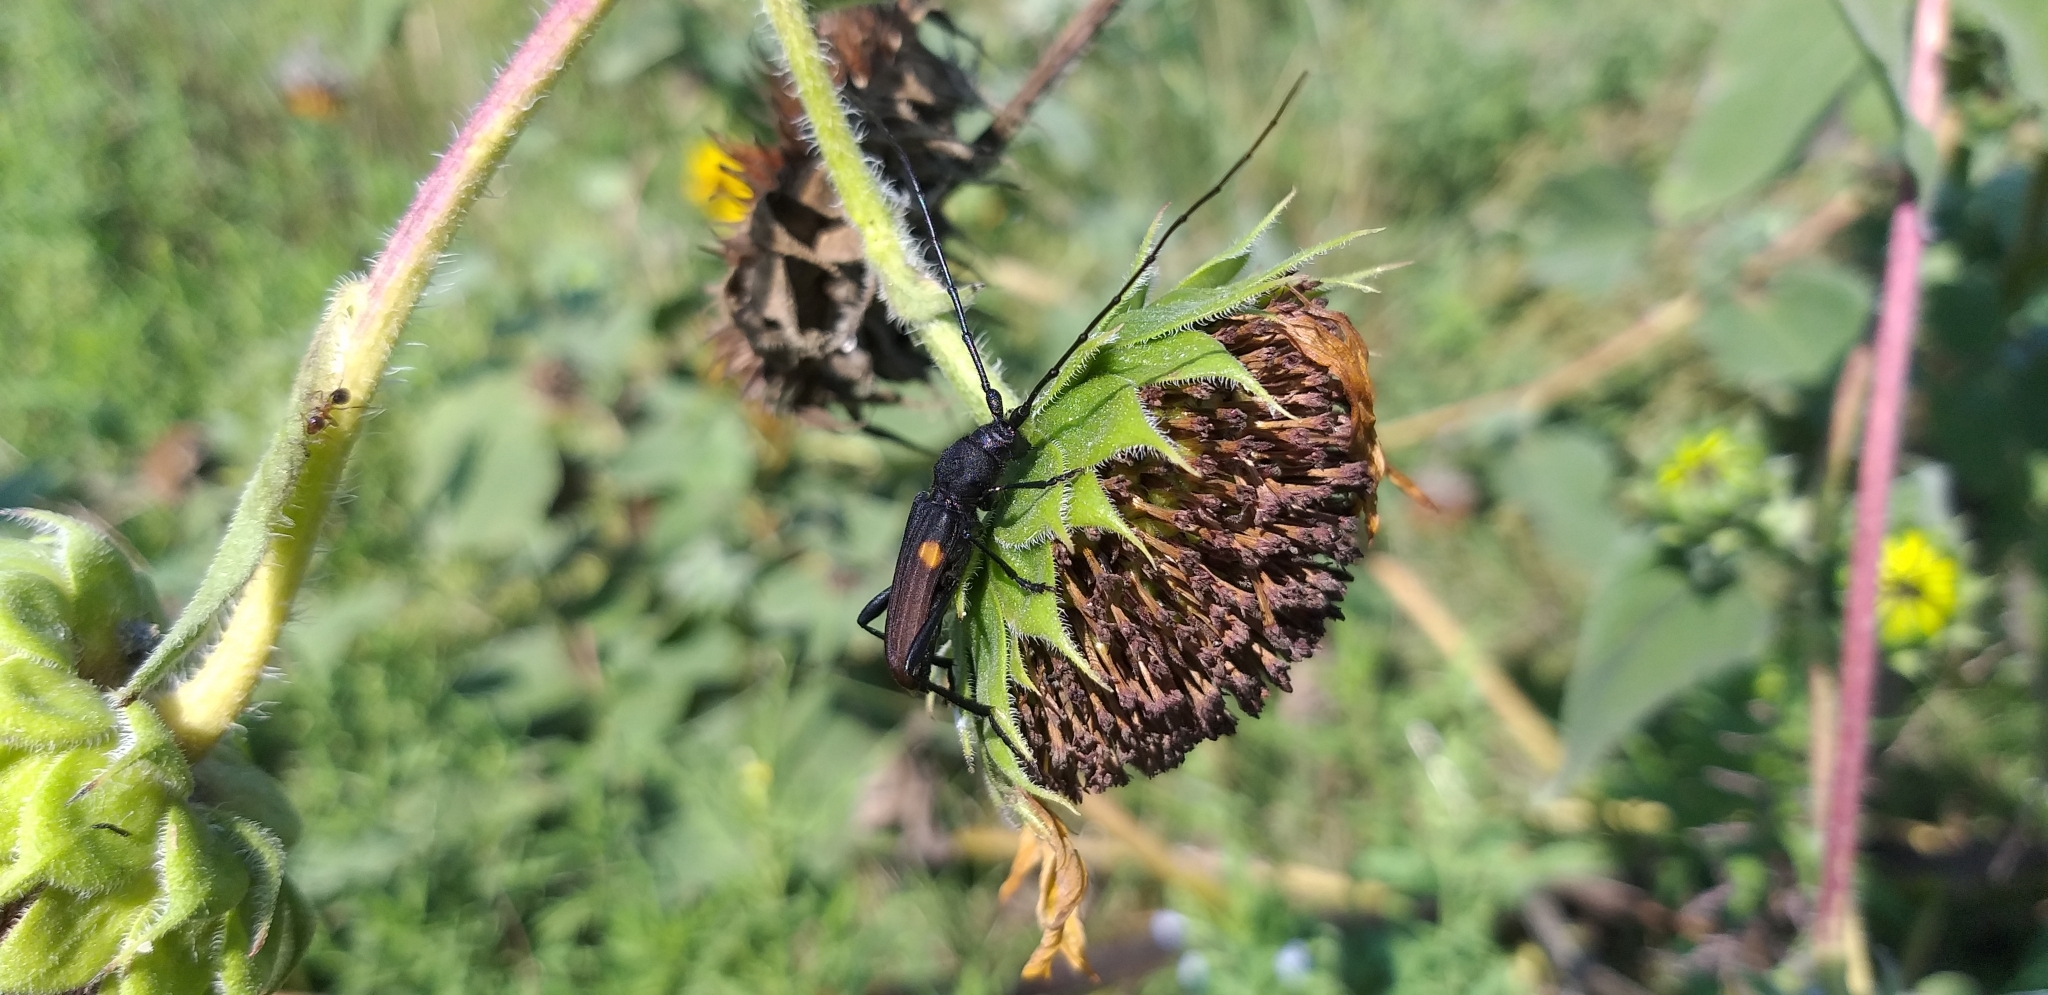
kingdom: Animalia
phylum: Arthropoda
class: Insecta
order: Coleoptera
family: Cerambycidae
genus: Tragidion
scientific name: Tragidion coquus
